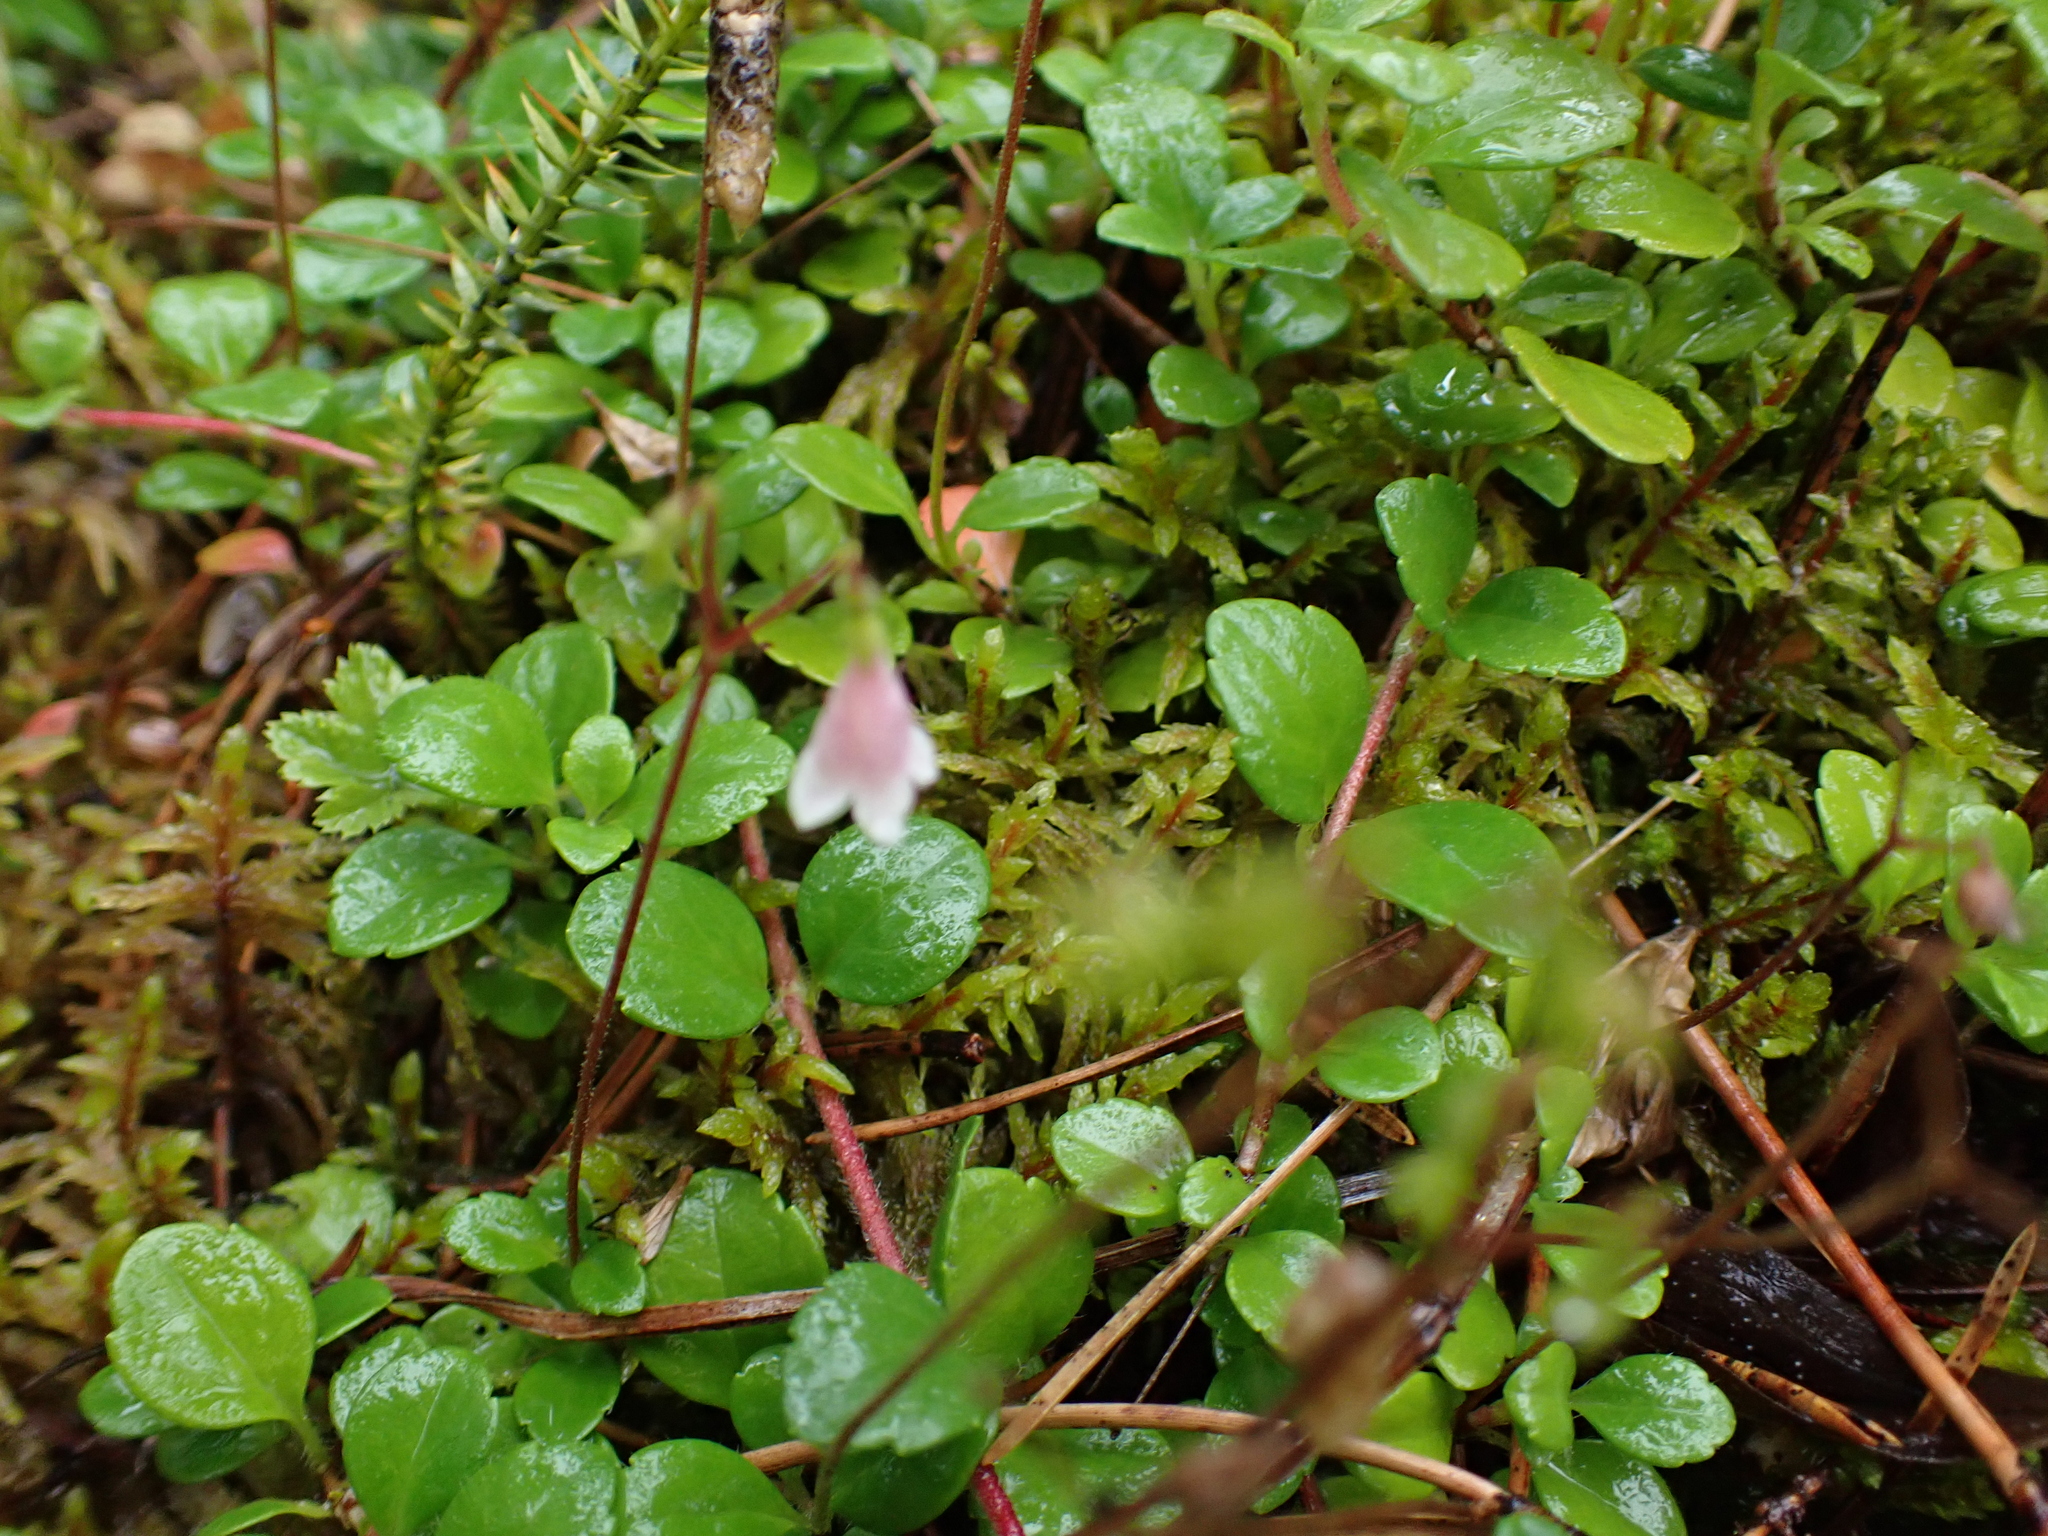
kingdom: Plantae
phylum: Tracheophyta
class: Magnoliopsida
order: Dipsacales
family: Caprifoliaceae
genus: Linnaea
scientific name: Linnaea borealis
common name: Twinflower
